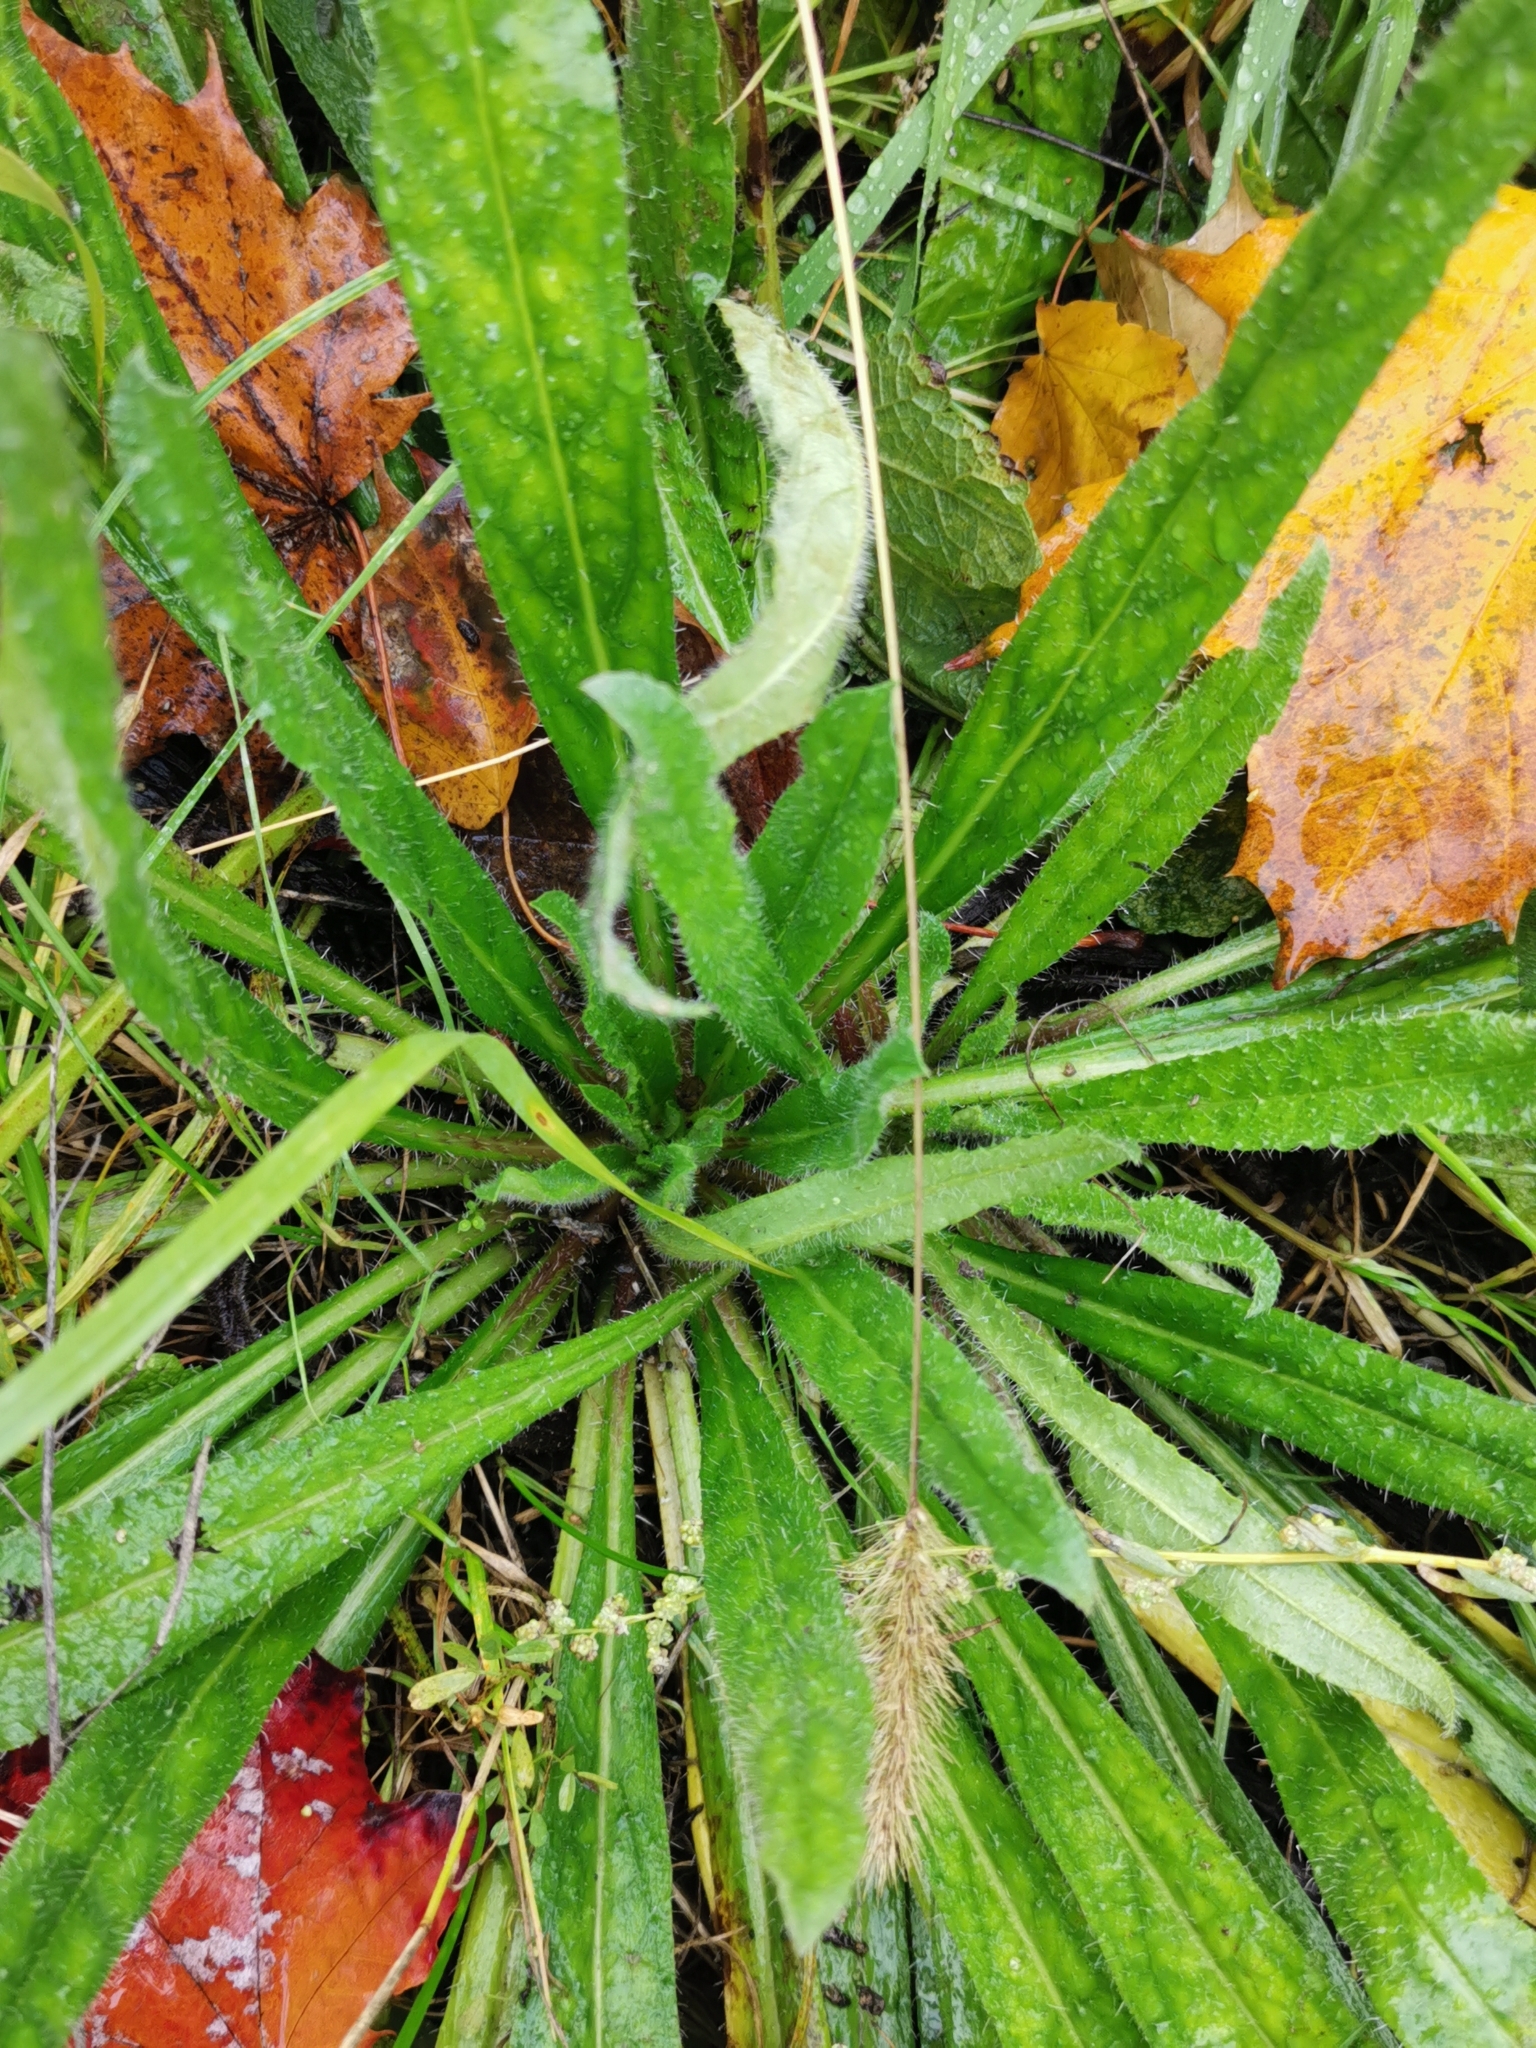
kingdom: Plantae
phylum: Tracheophyta
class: Magnoliopsida
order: Boraginales
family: Boraginaceae
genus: Echium
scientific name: Echium vulgare
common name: Common viper's bugloss
